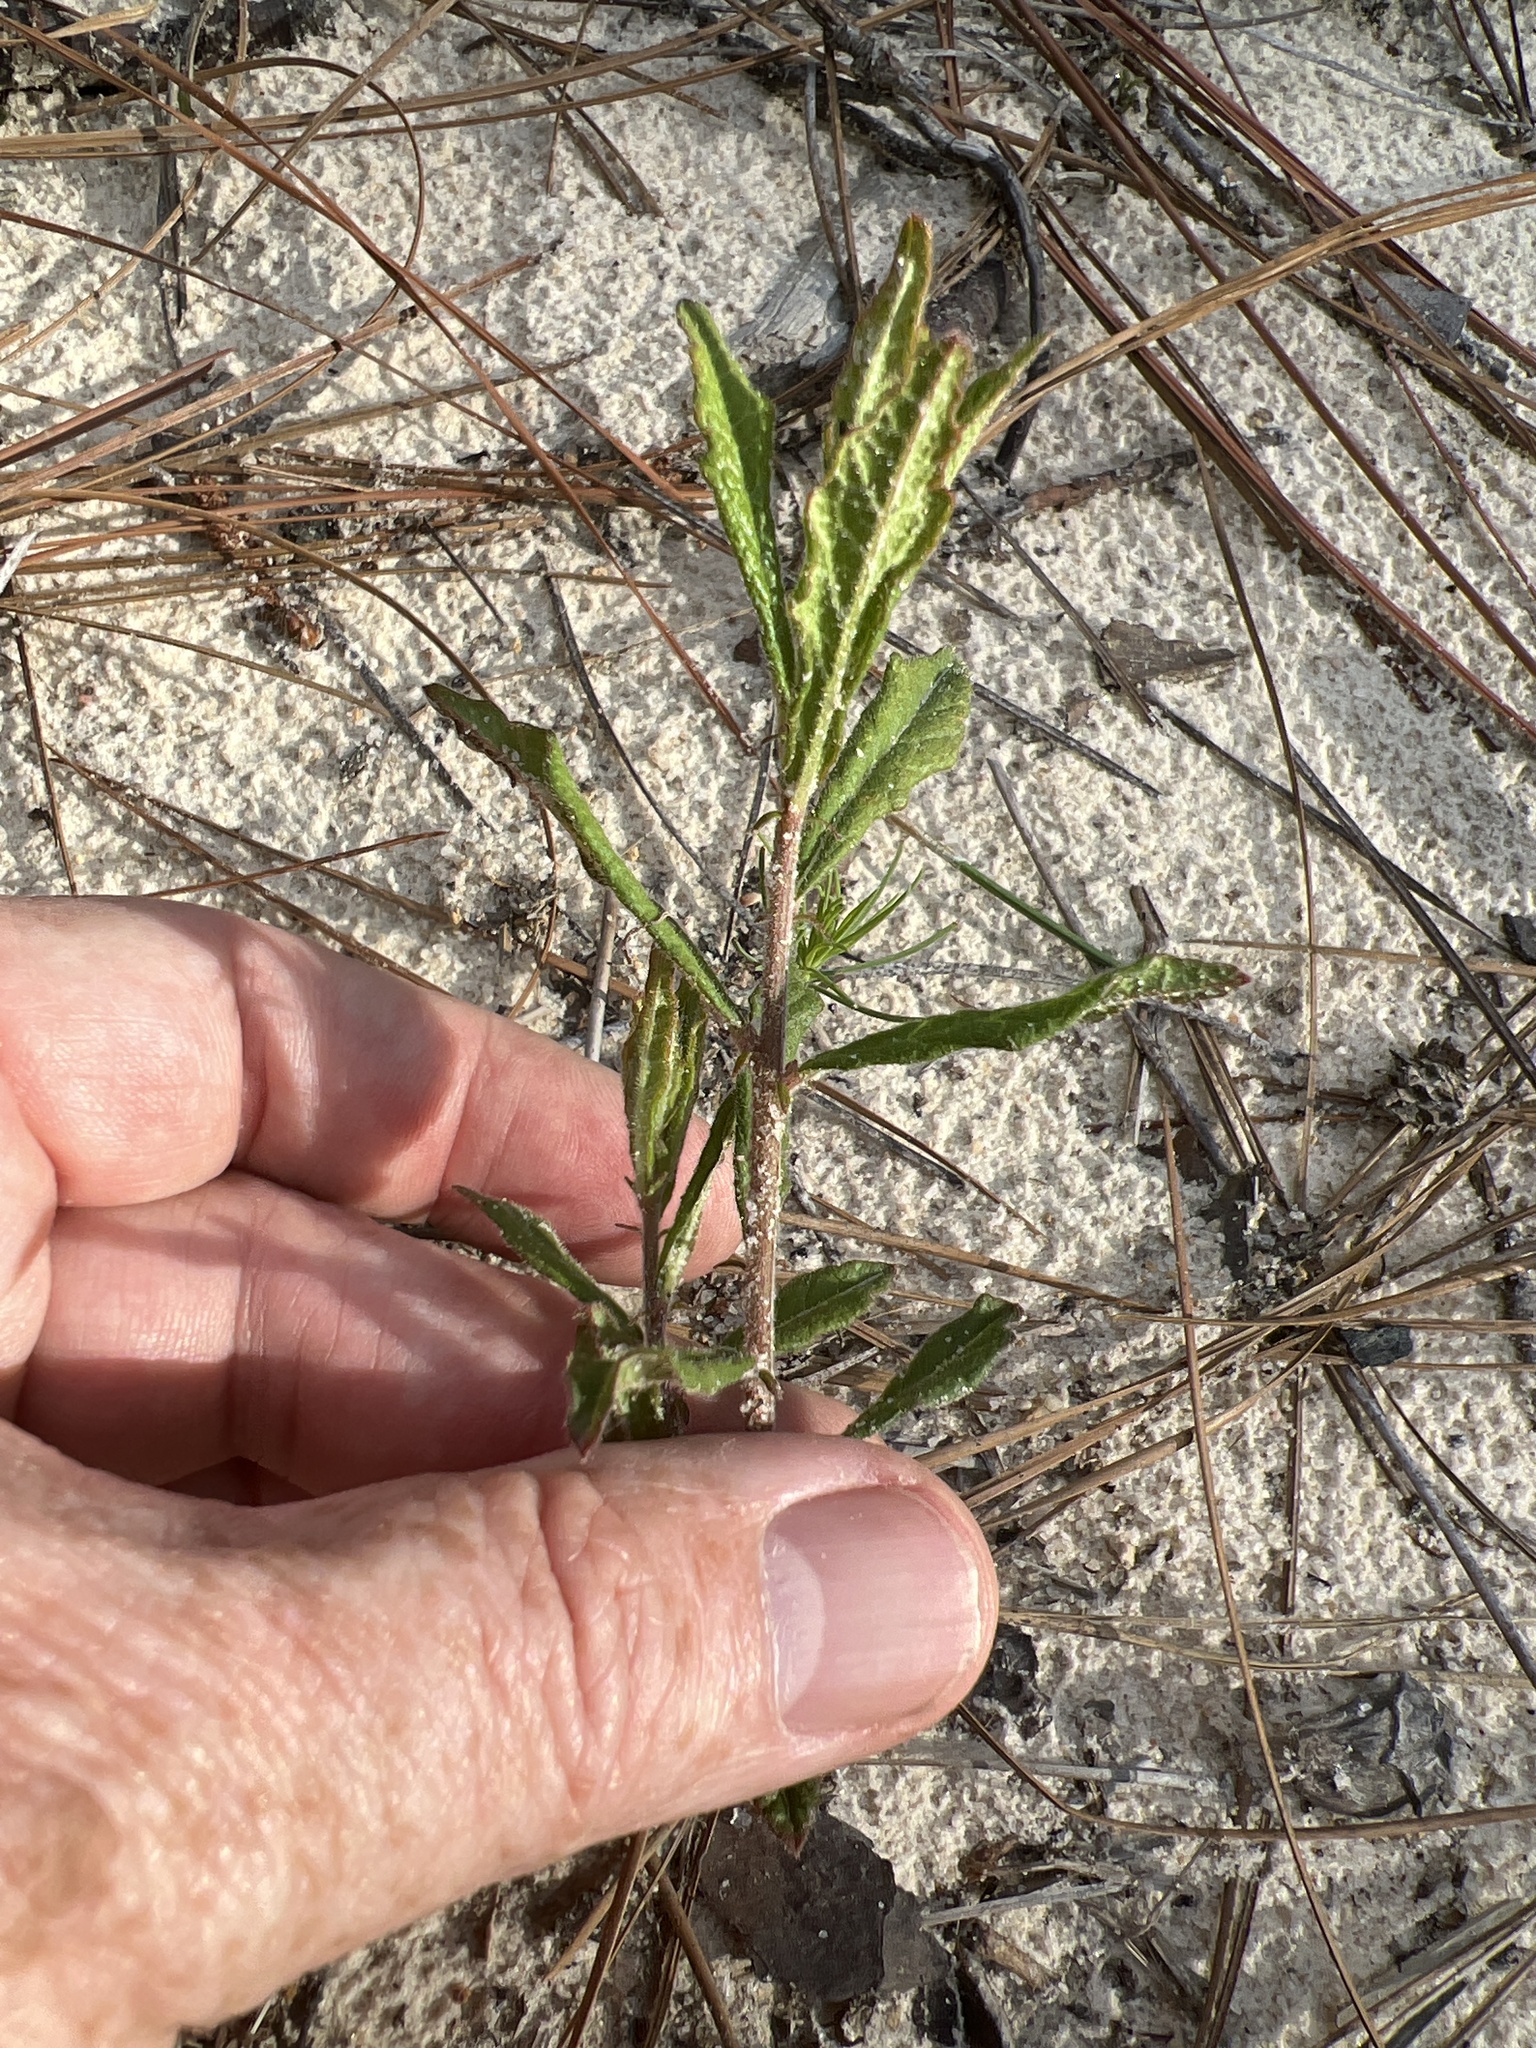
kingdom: Plantae
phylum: Tracheophyta
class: Magnoliopsida
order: Malpighiales
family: Euphorbiaceae
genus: Tragia
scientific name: Tragia urens
